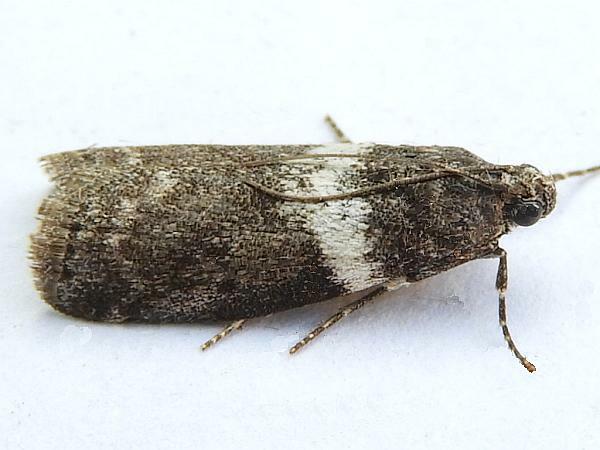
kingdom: Animalia
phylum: Arthropoda
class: Insecta
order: Lepidoptera
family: Pyralidae
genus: Salebriaria
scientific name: Salebriaria fasciata
